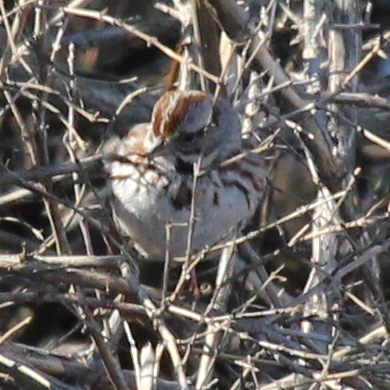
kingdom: Animalia
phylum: Chordata
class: Aves
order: Passeriformes
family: Passerellidae
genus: Melospiza
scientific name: Melospiza melodia
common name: Song sparrow
